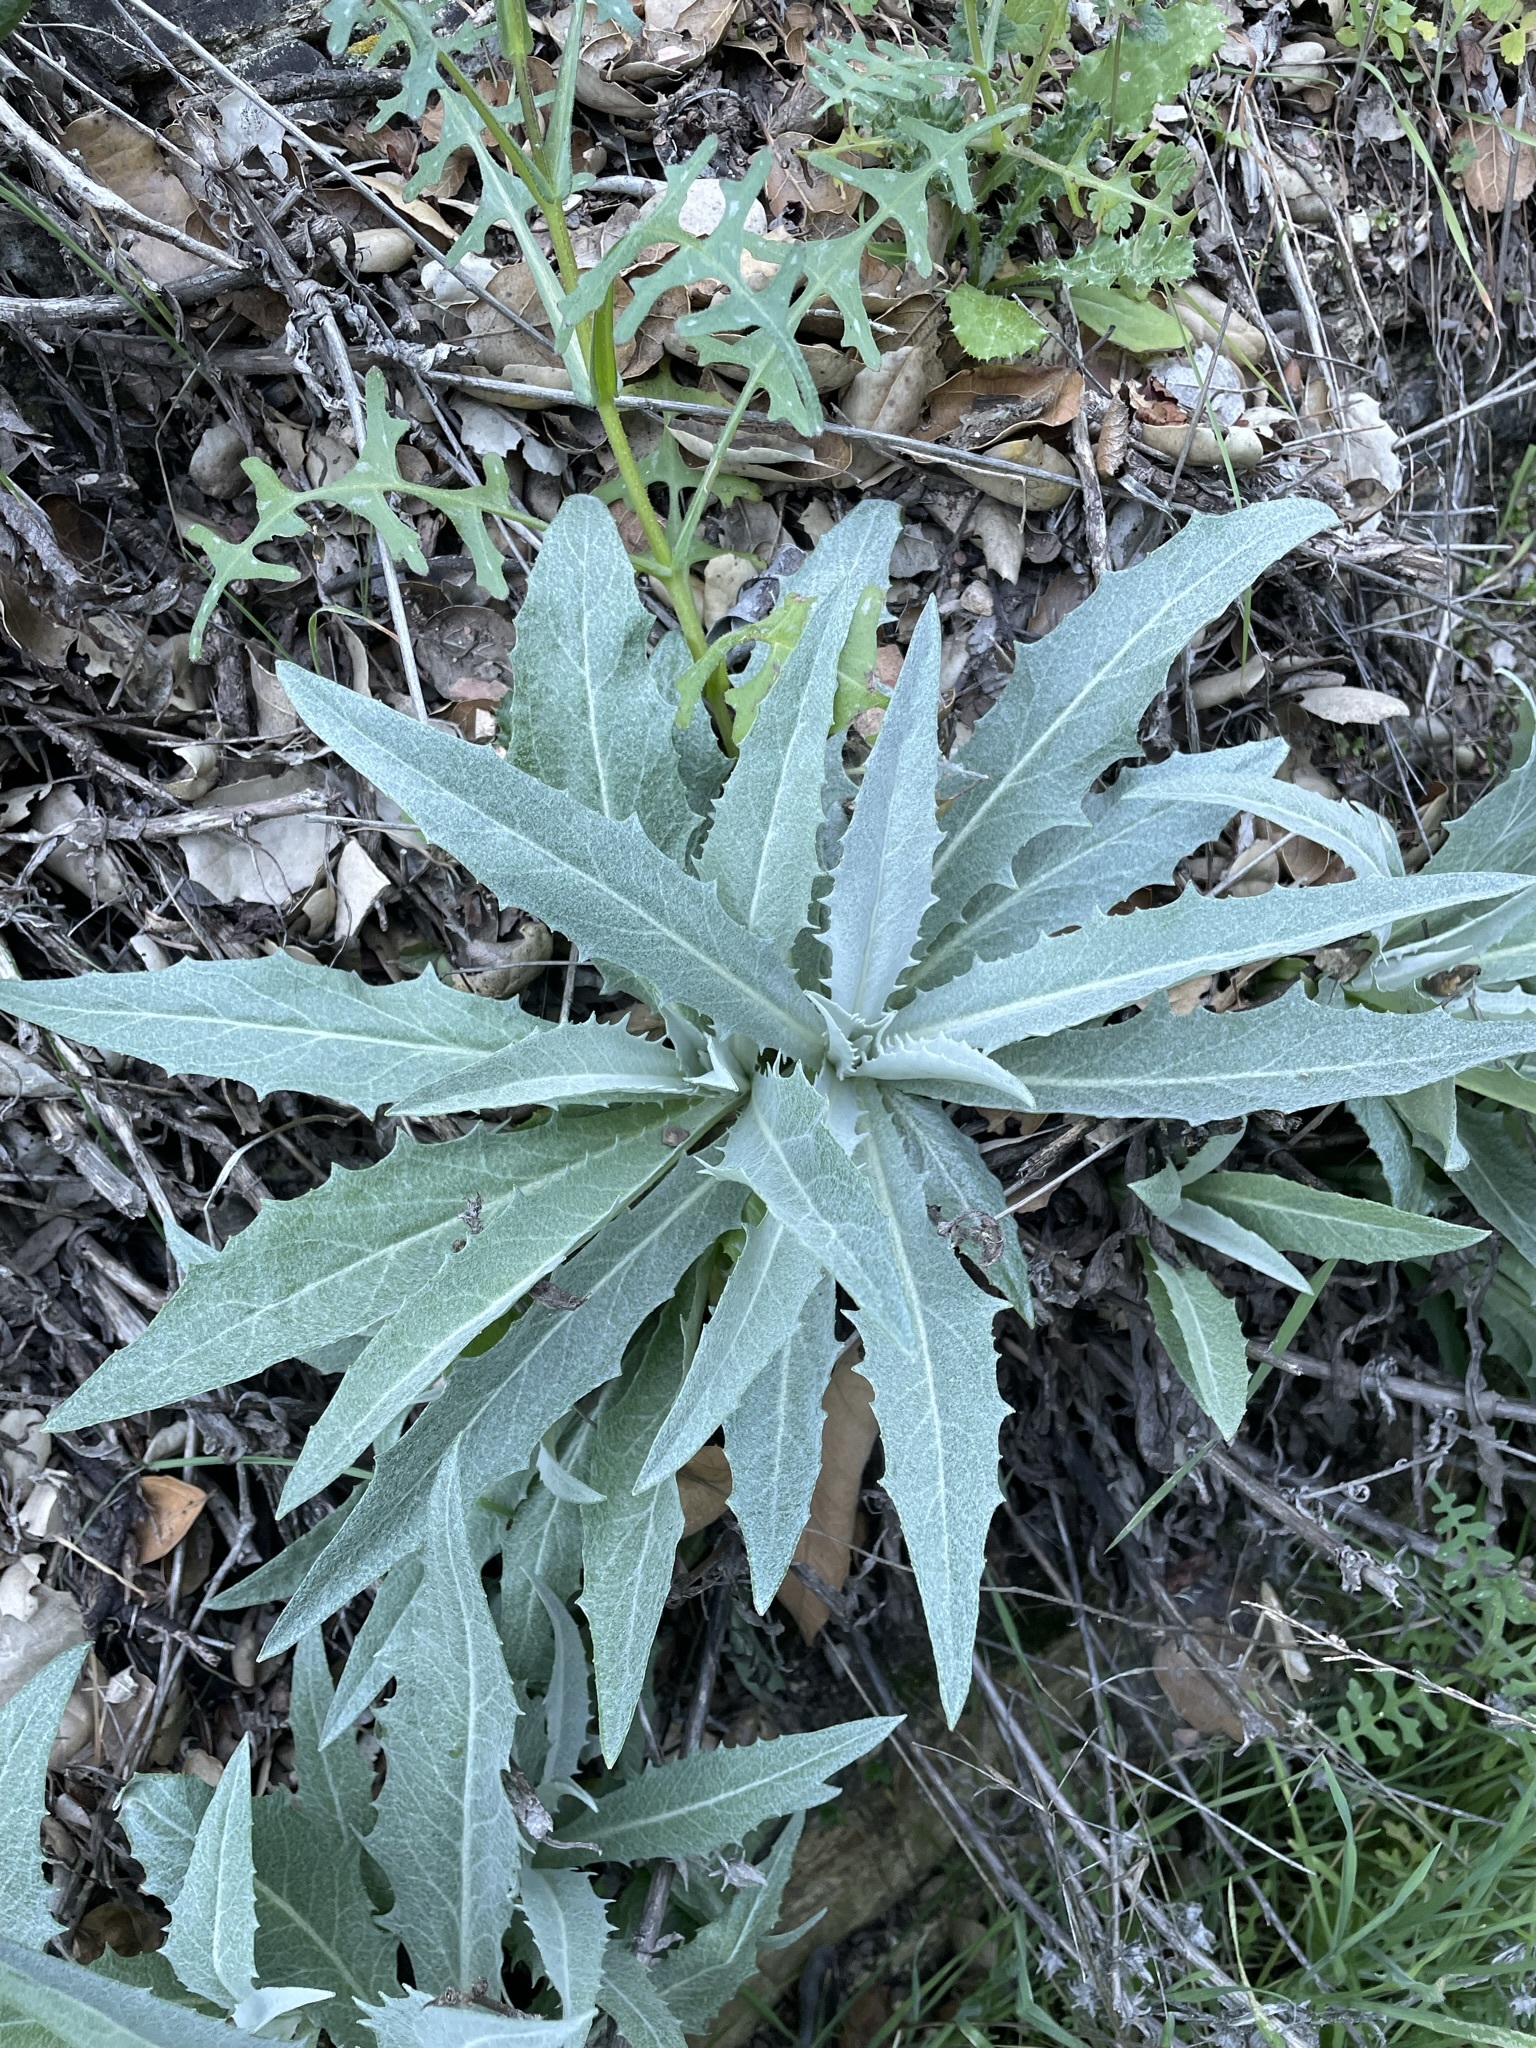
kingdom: Plantae
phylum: Tracheophyta
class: Magnoliopsida
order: Asterales
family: Asteraceae
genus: Stephanomeria
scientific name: Stephanomeria cichoriacea
